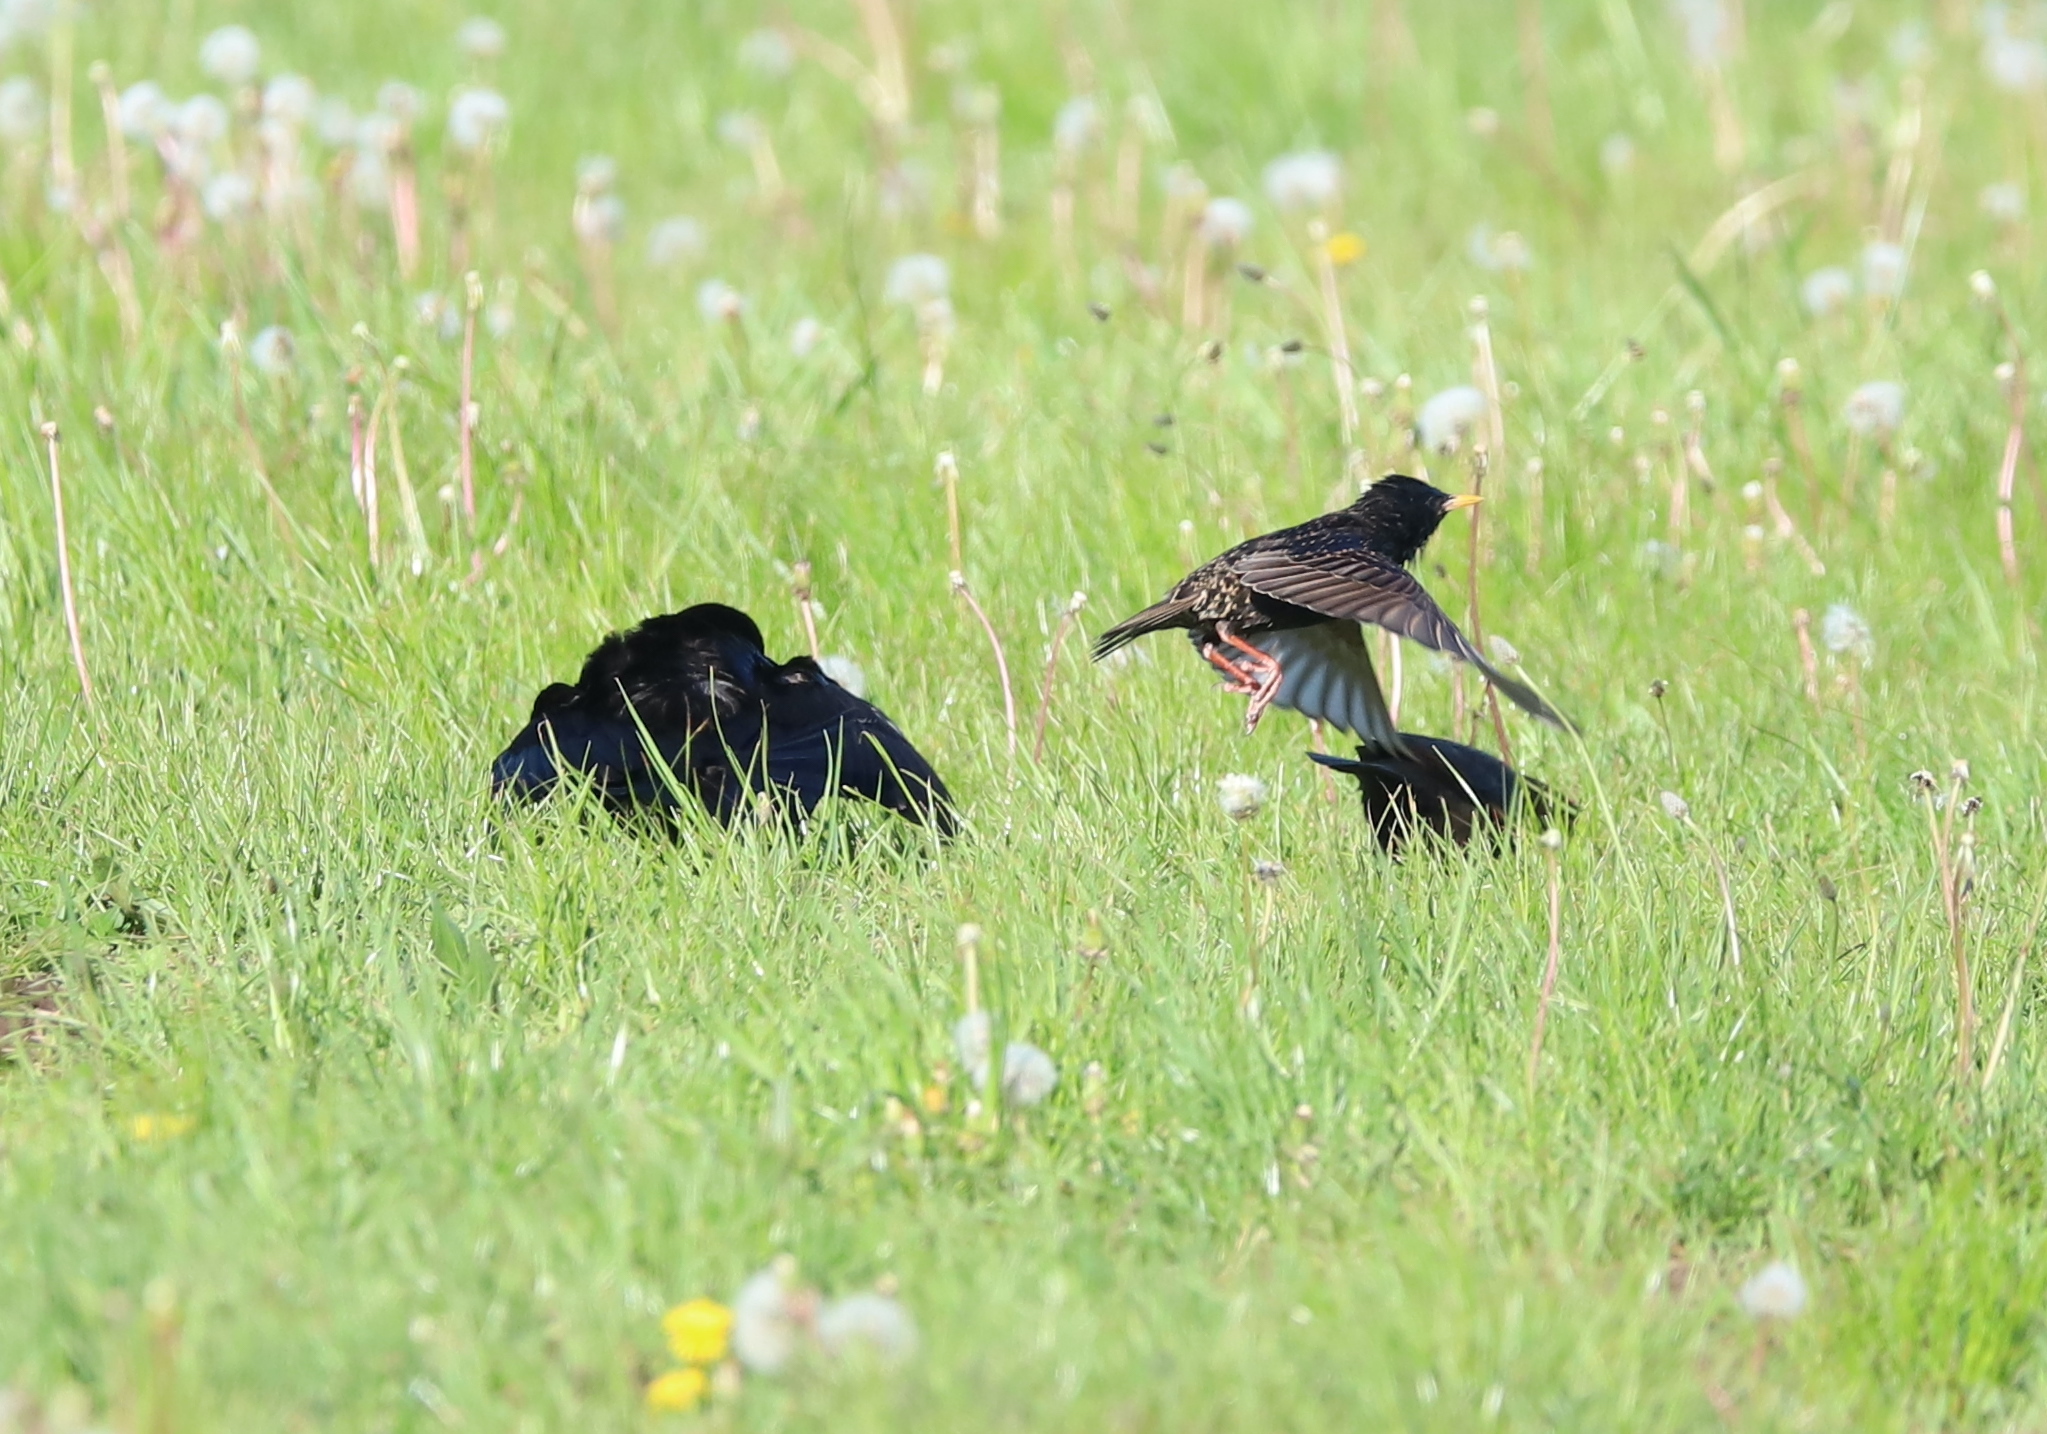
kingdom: Animalia
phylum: Chordata
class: Aves
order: Passeriformes
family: Sturnidae
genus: Sturnus
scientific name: Sturnus vulgaris
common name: Common starling
